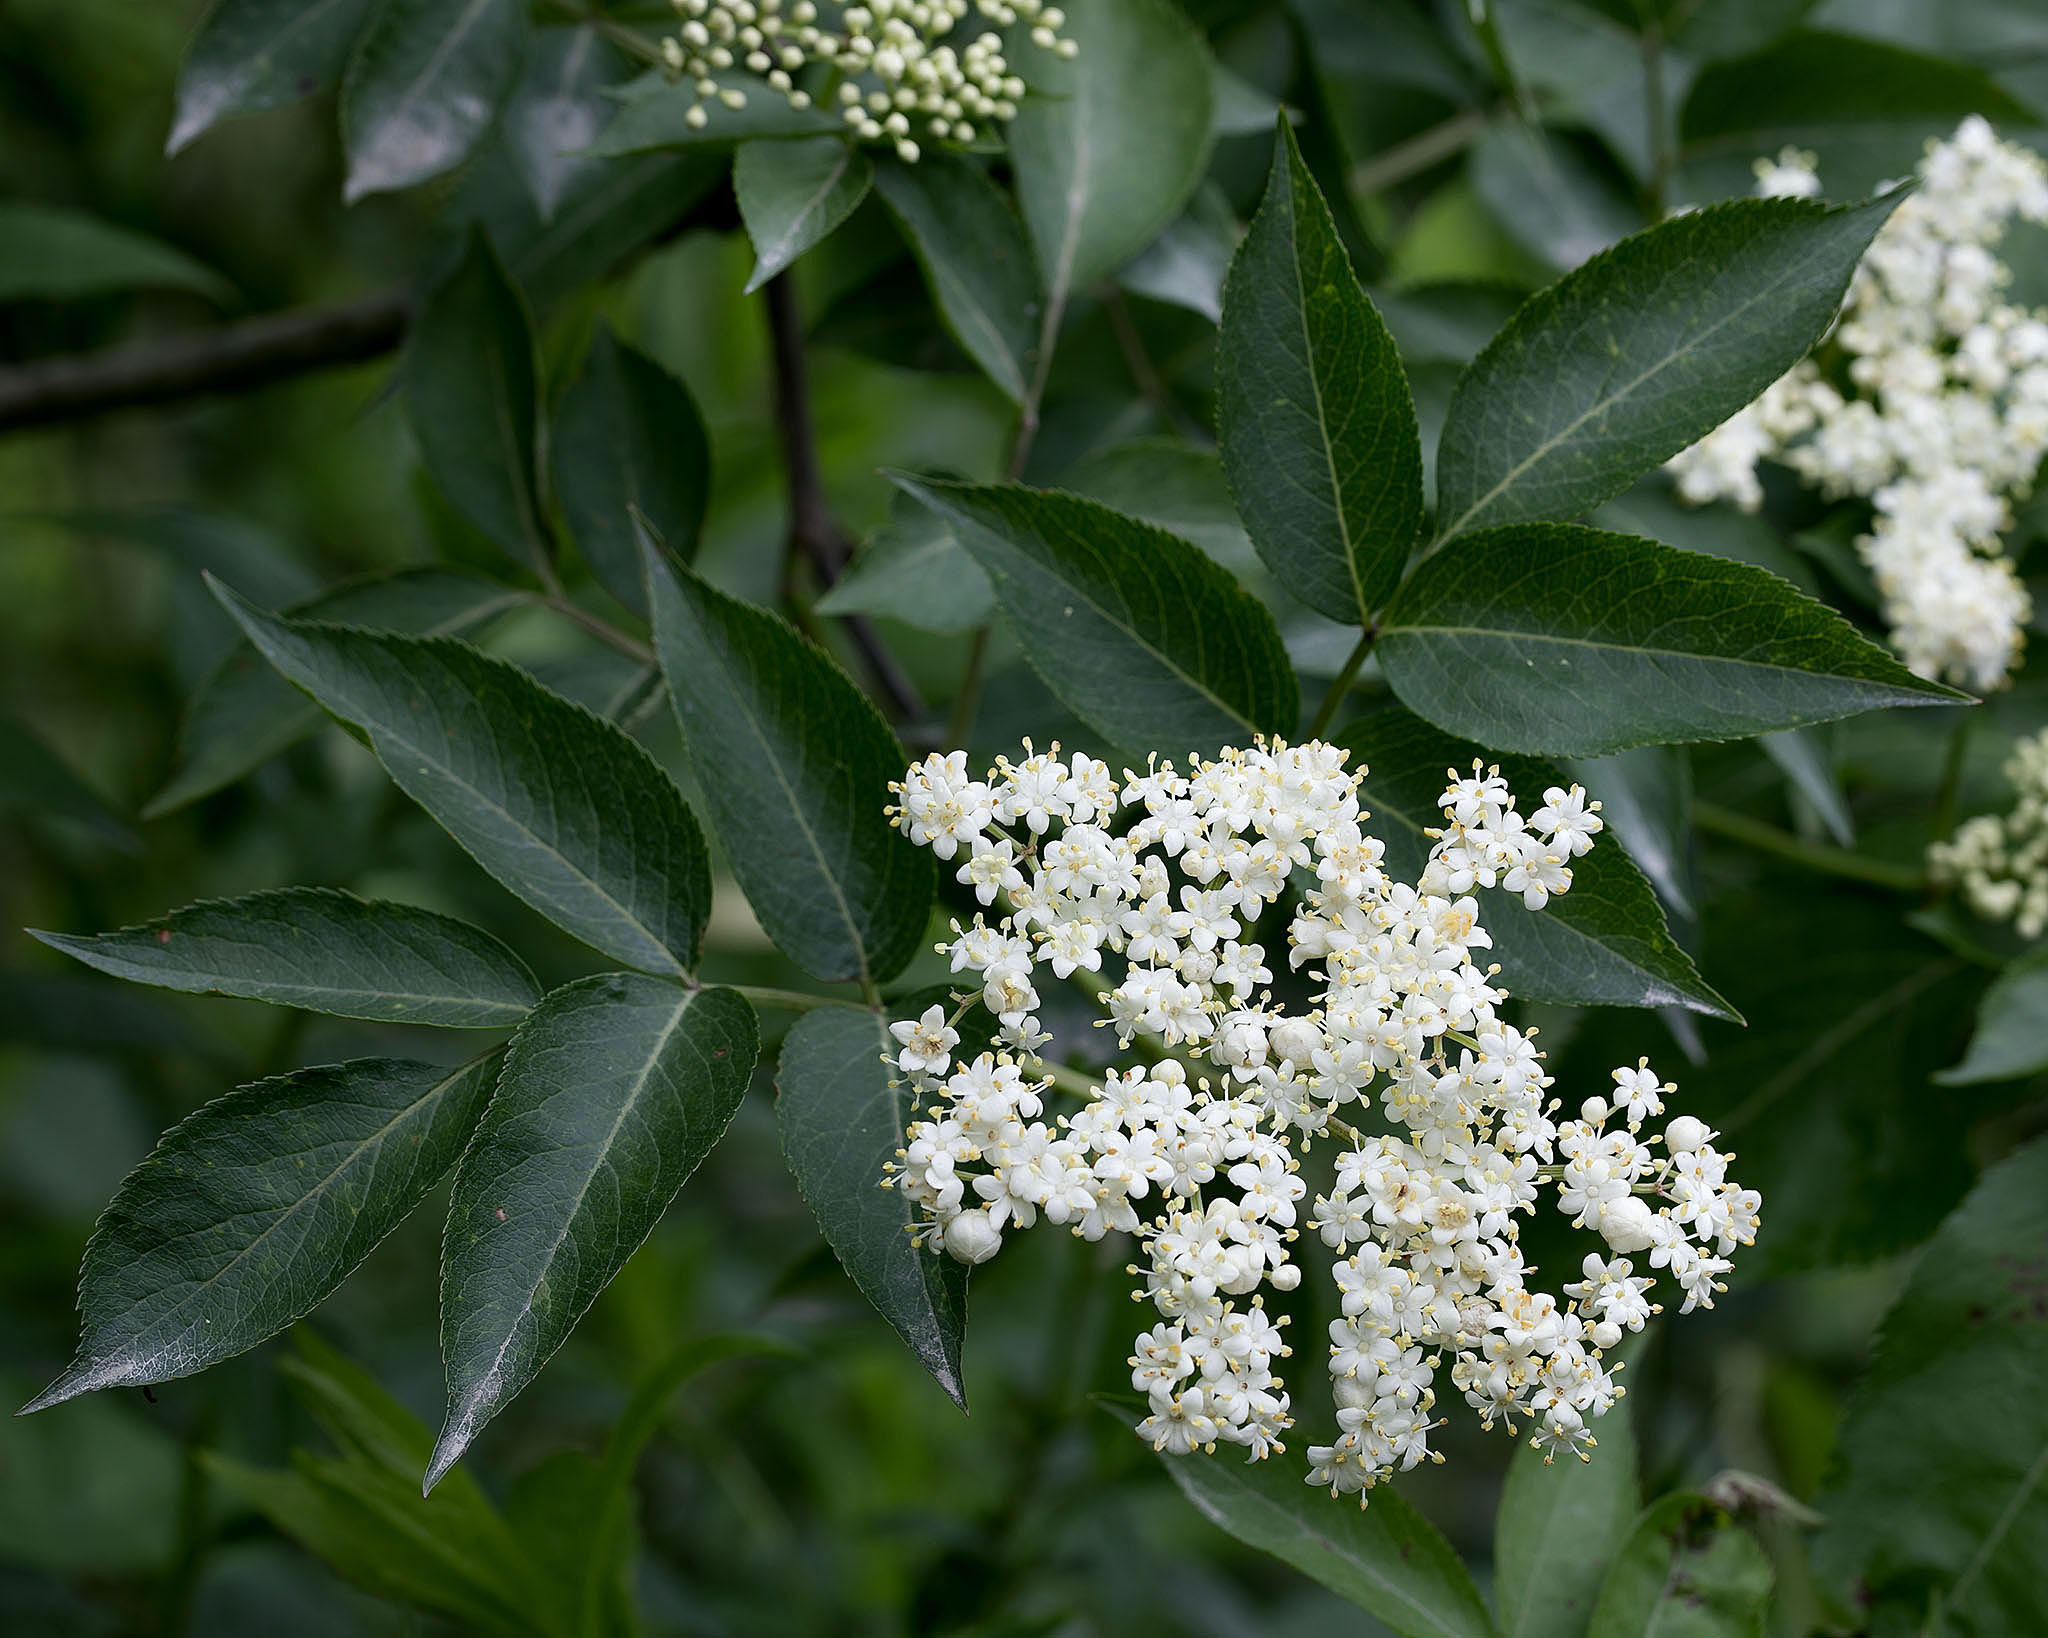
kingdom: Plantae
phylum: Tracheophyta
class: Magnoliopsida
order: Dipsacales
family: Viburnaceae
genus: Sambucus
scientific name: Sambucus canadensis
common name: American elder
